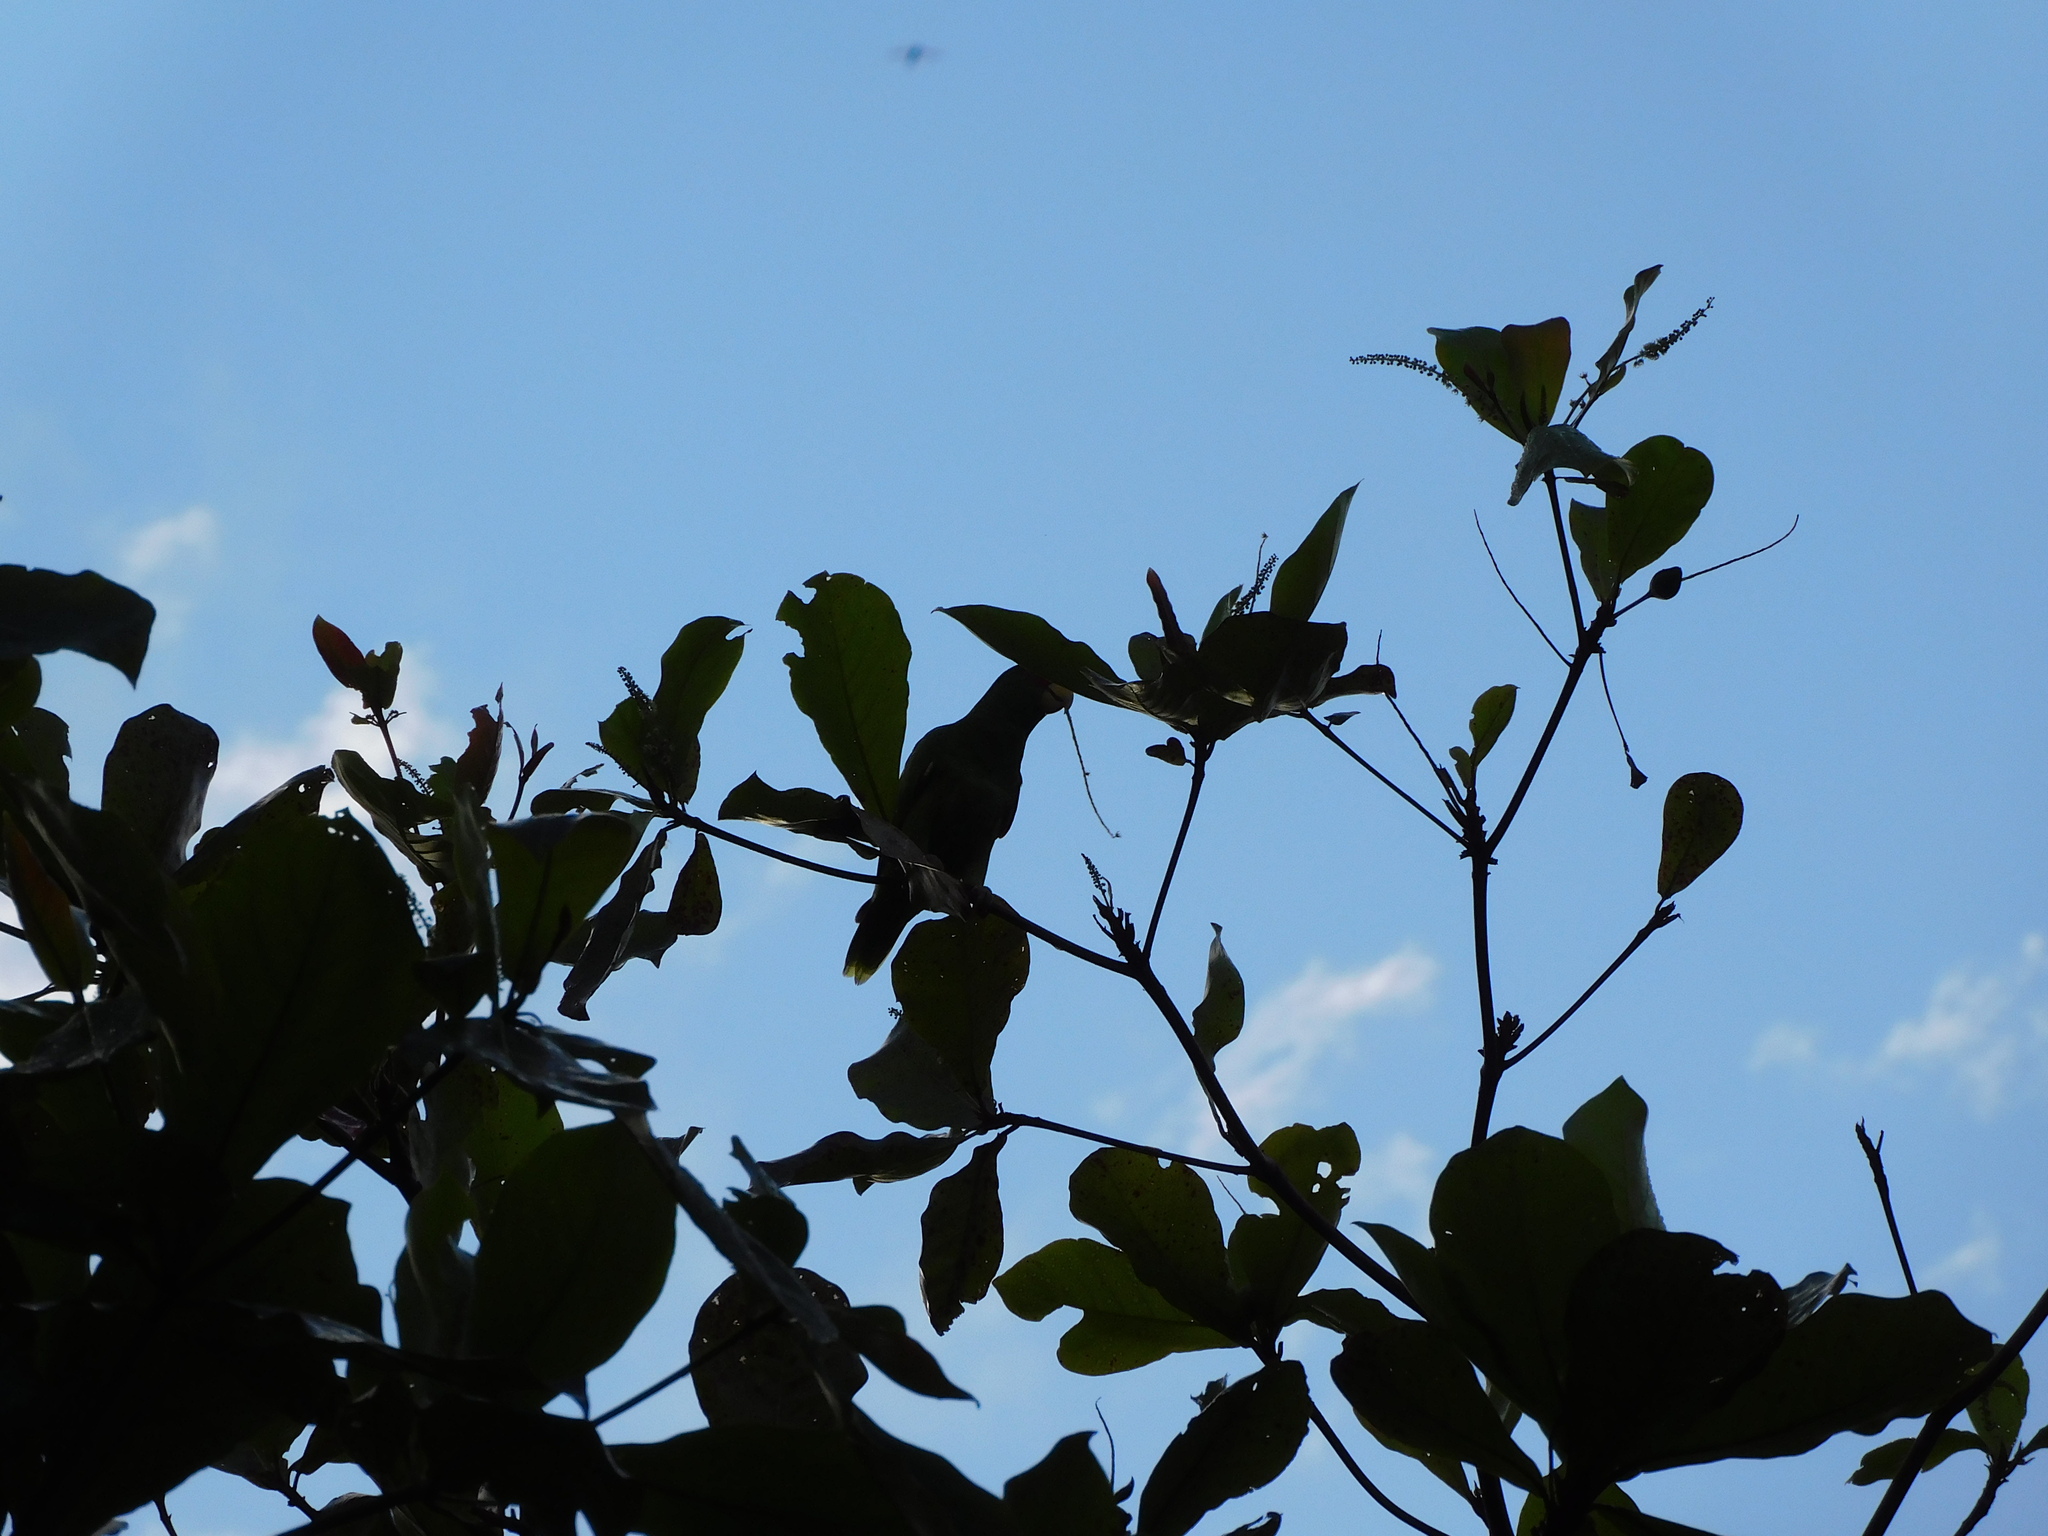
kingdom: Animalia
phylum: Chordata
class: Aves
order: Psittaciformes
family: Psittacidae
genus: Amazona
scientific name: Amazona albifrons
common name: White-fronted amazon
